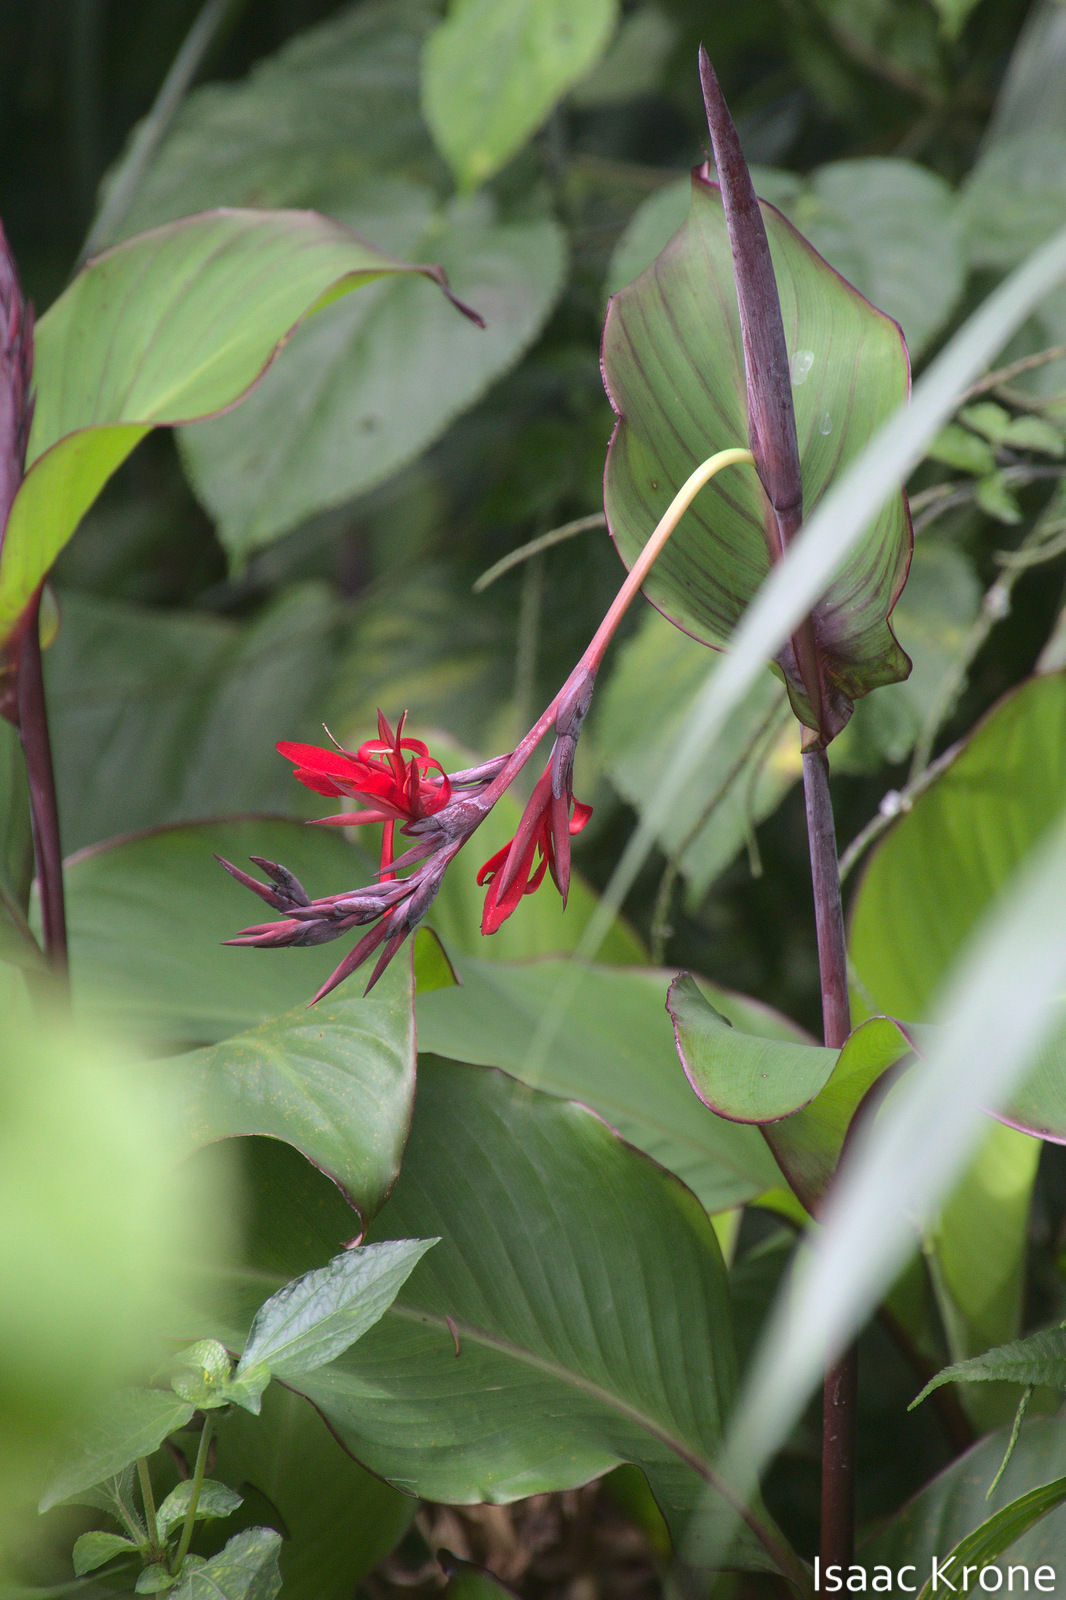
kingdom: Plantae
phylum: Tracheophyta
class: Liliopsida
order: Zingiberales
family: Cannaceae
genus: Canna
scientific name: Canna indica
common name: Indian shot
